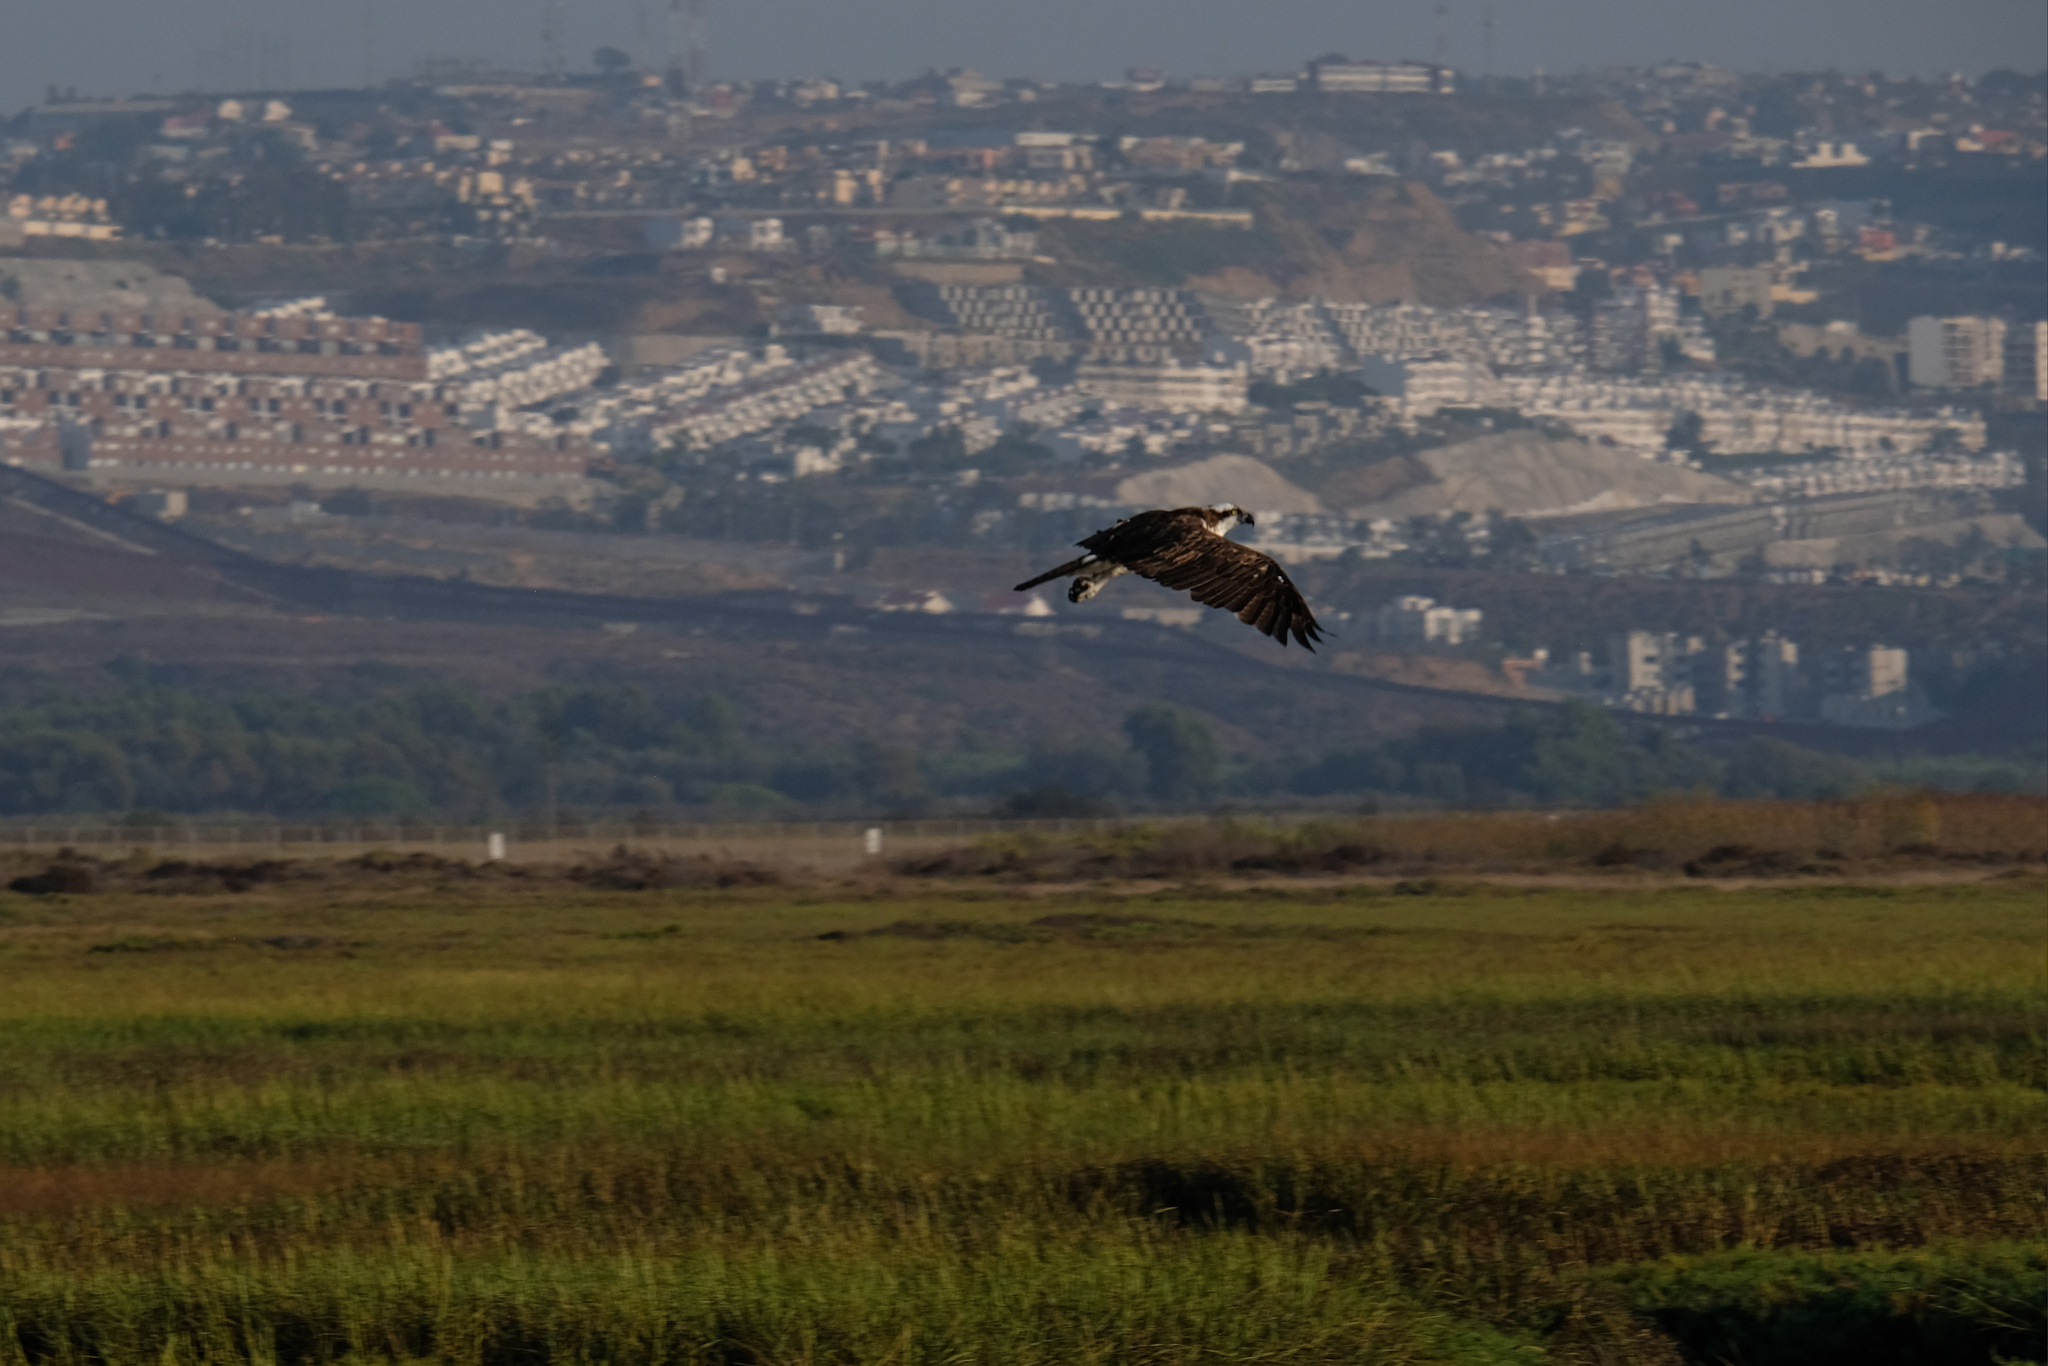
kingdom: Animalia
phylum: Chordata
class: Aves
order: Accipitriformes
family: Pandionidae
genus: Pandion
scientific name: Pandion haliaetus
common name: Osprey
